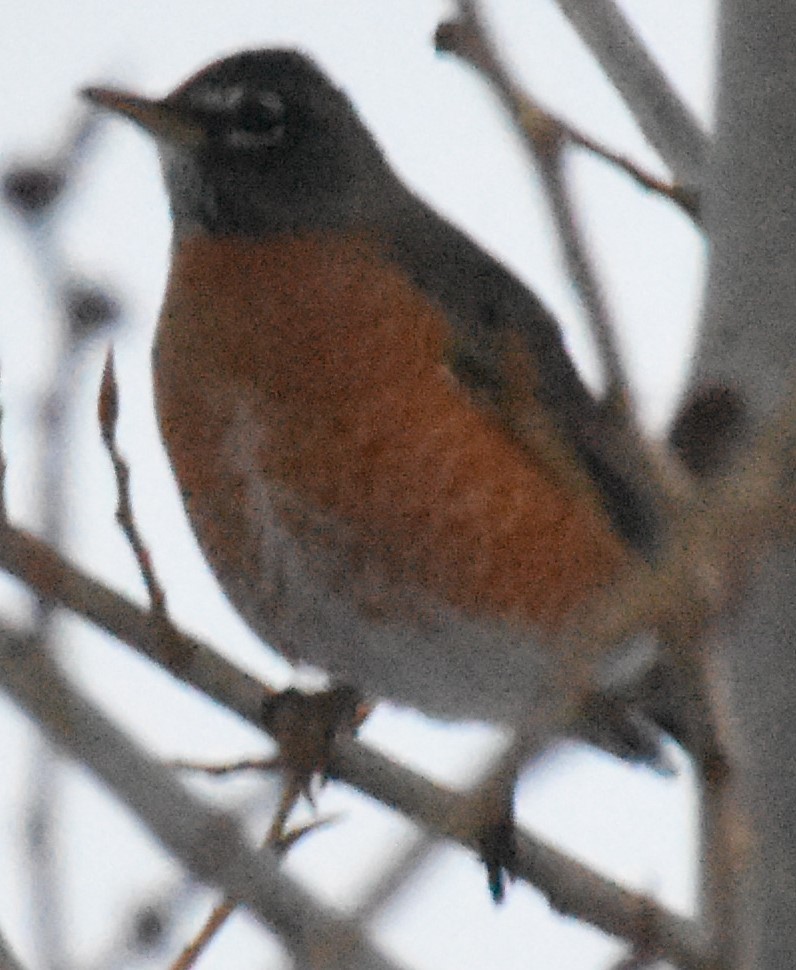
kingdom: Animalia
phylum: Chordata
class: Aves
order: Passeriformes
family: Turdidae
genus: Turdus
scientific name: Turdus migratorius
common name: American robin
